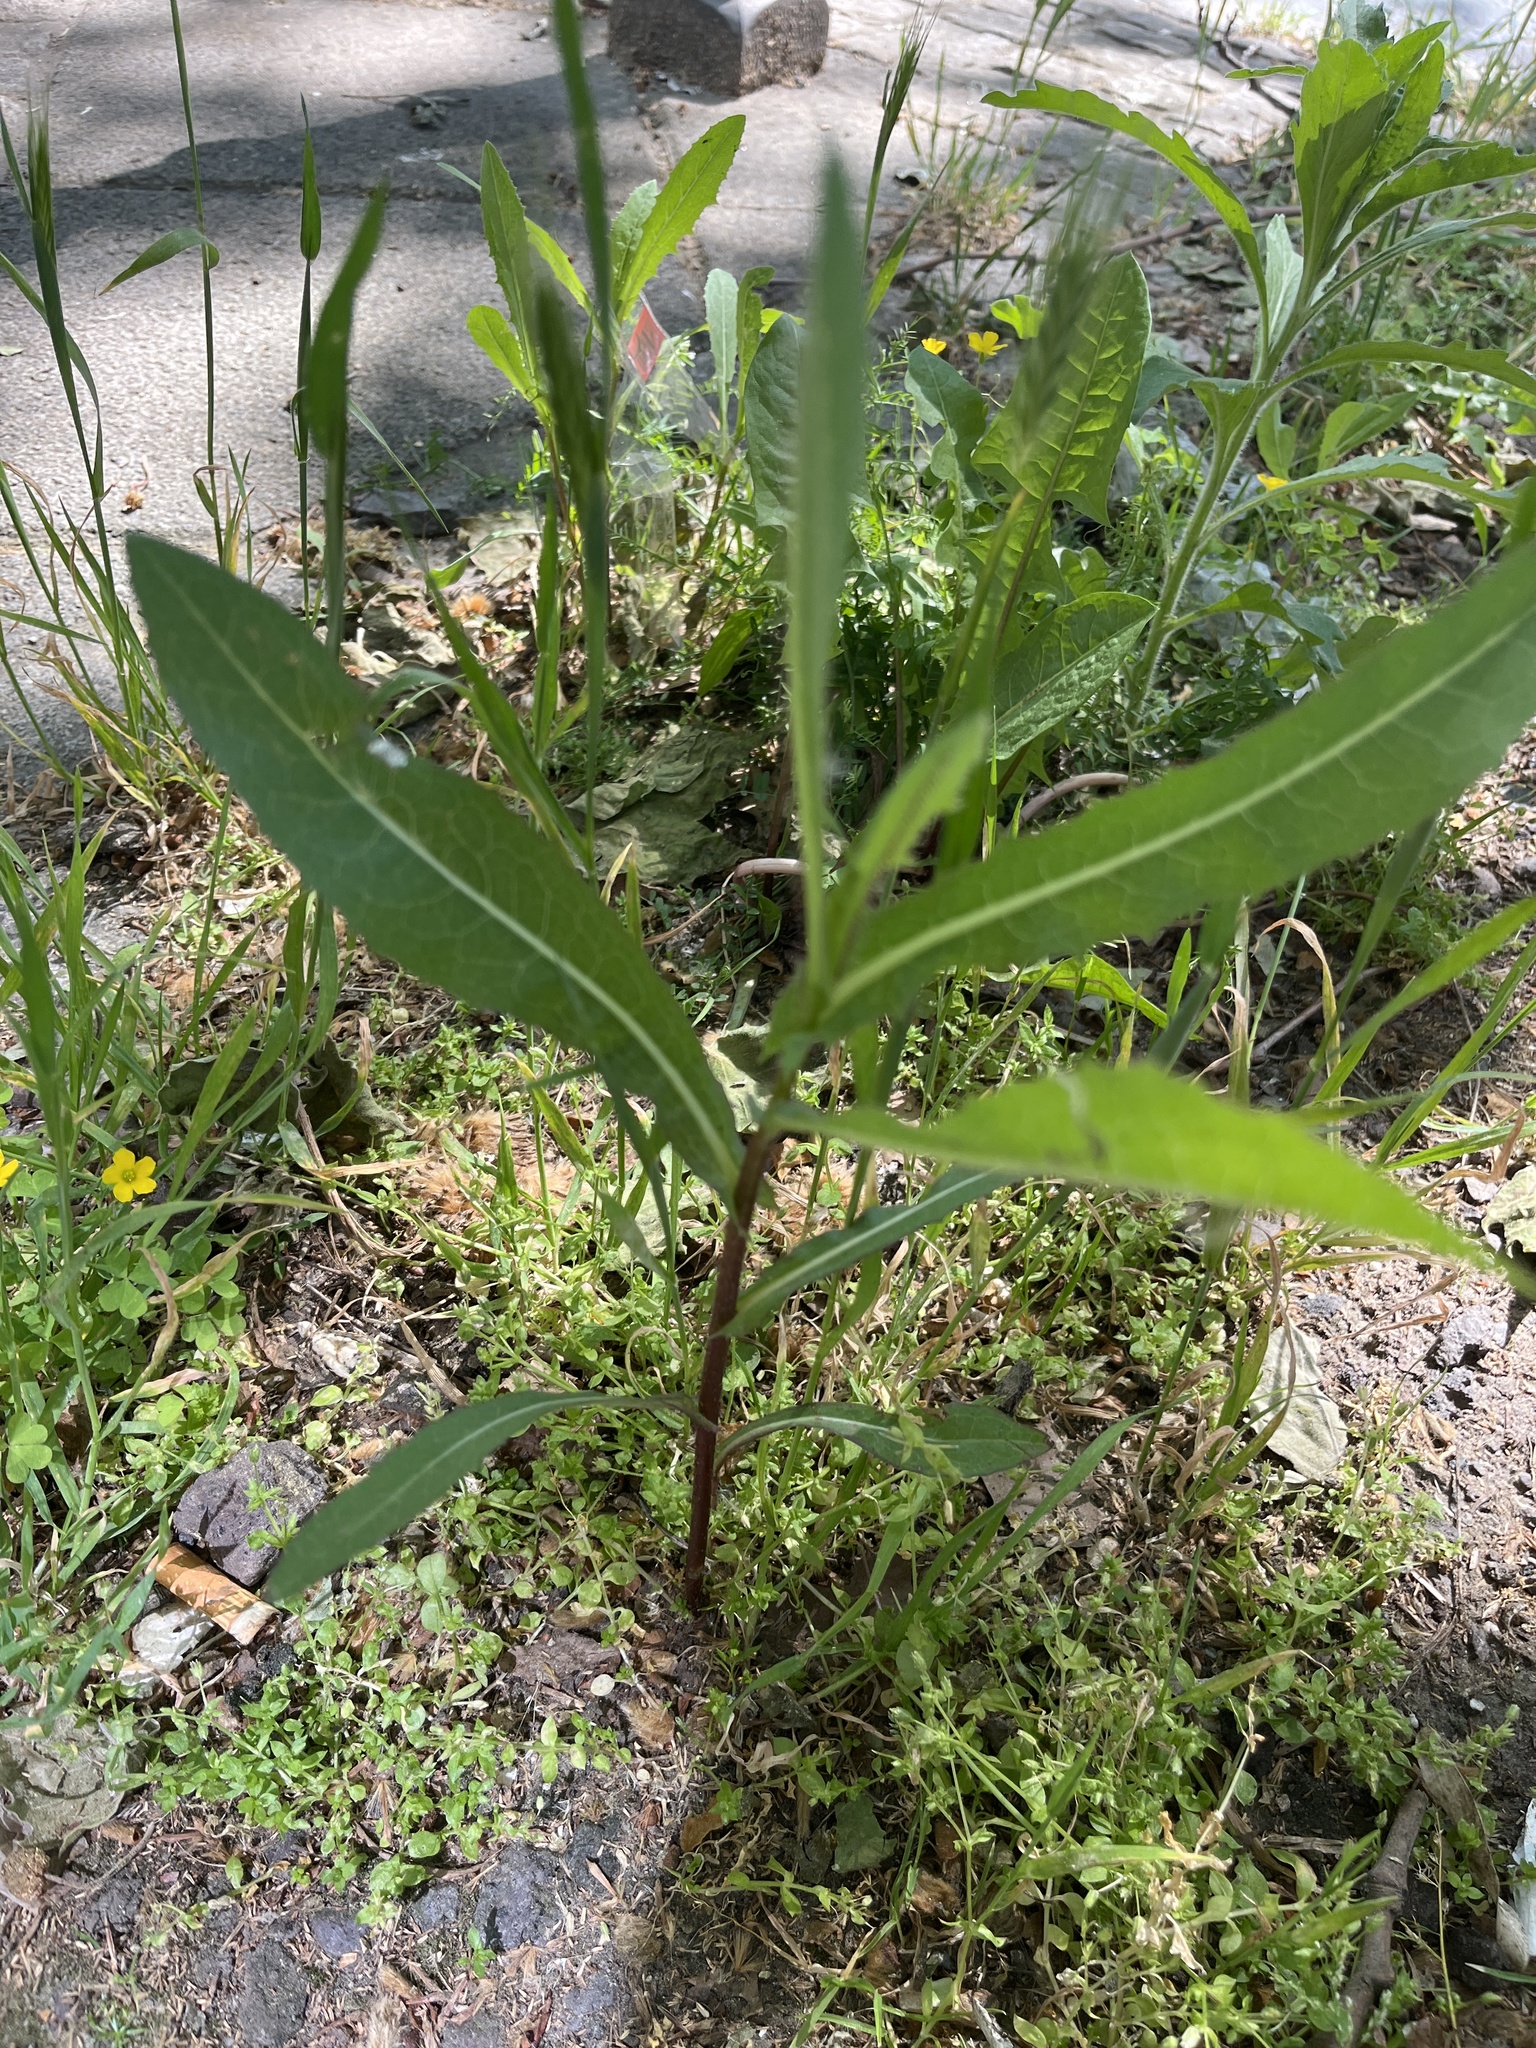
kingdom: Plantae
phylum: Tracheophyta
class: Magnoliopsida
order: Asterales
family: Asteraceae
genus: Lactuca
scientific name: Lactuca serriola
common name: Prickly lettuce
